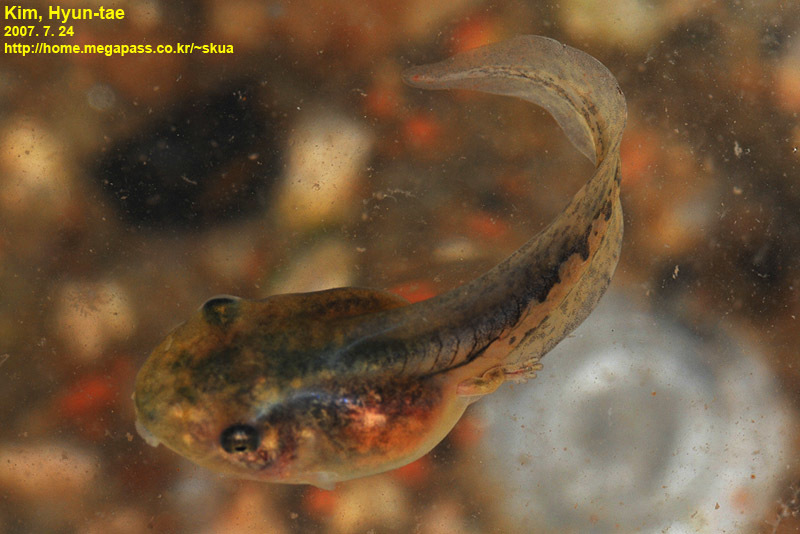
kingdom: Animalia
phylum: Chordata
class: Amphibia
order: Anura
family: Hylidae
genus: Dryophytes
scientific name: Dryophytes japonicus
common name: Japanese treefrog
